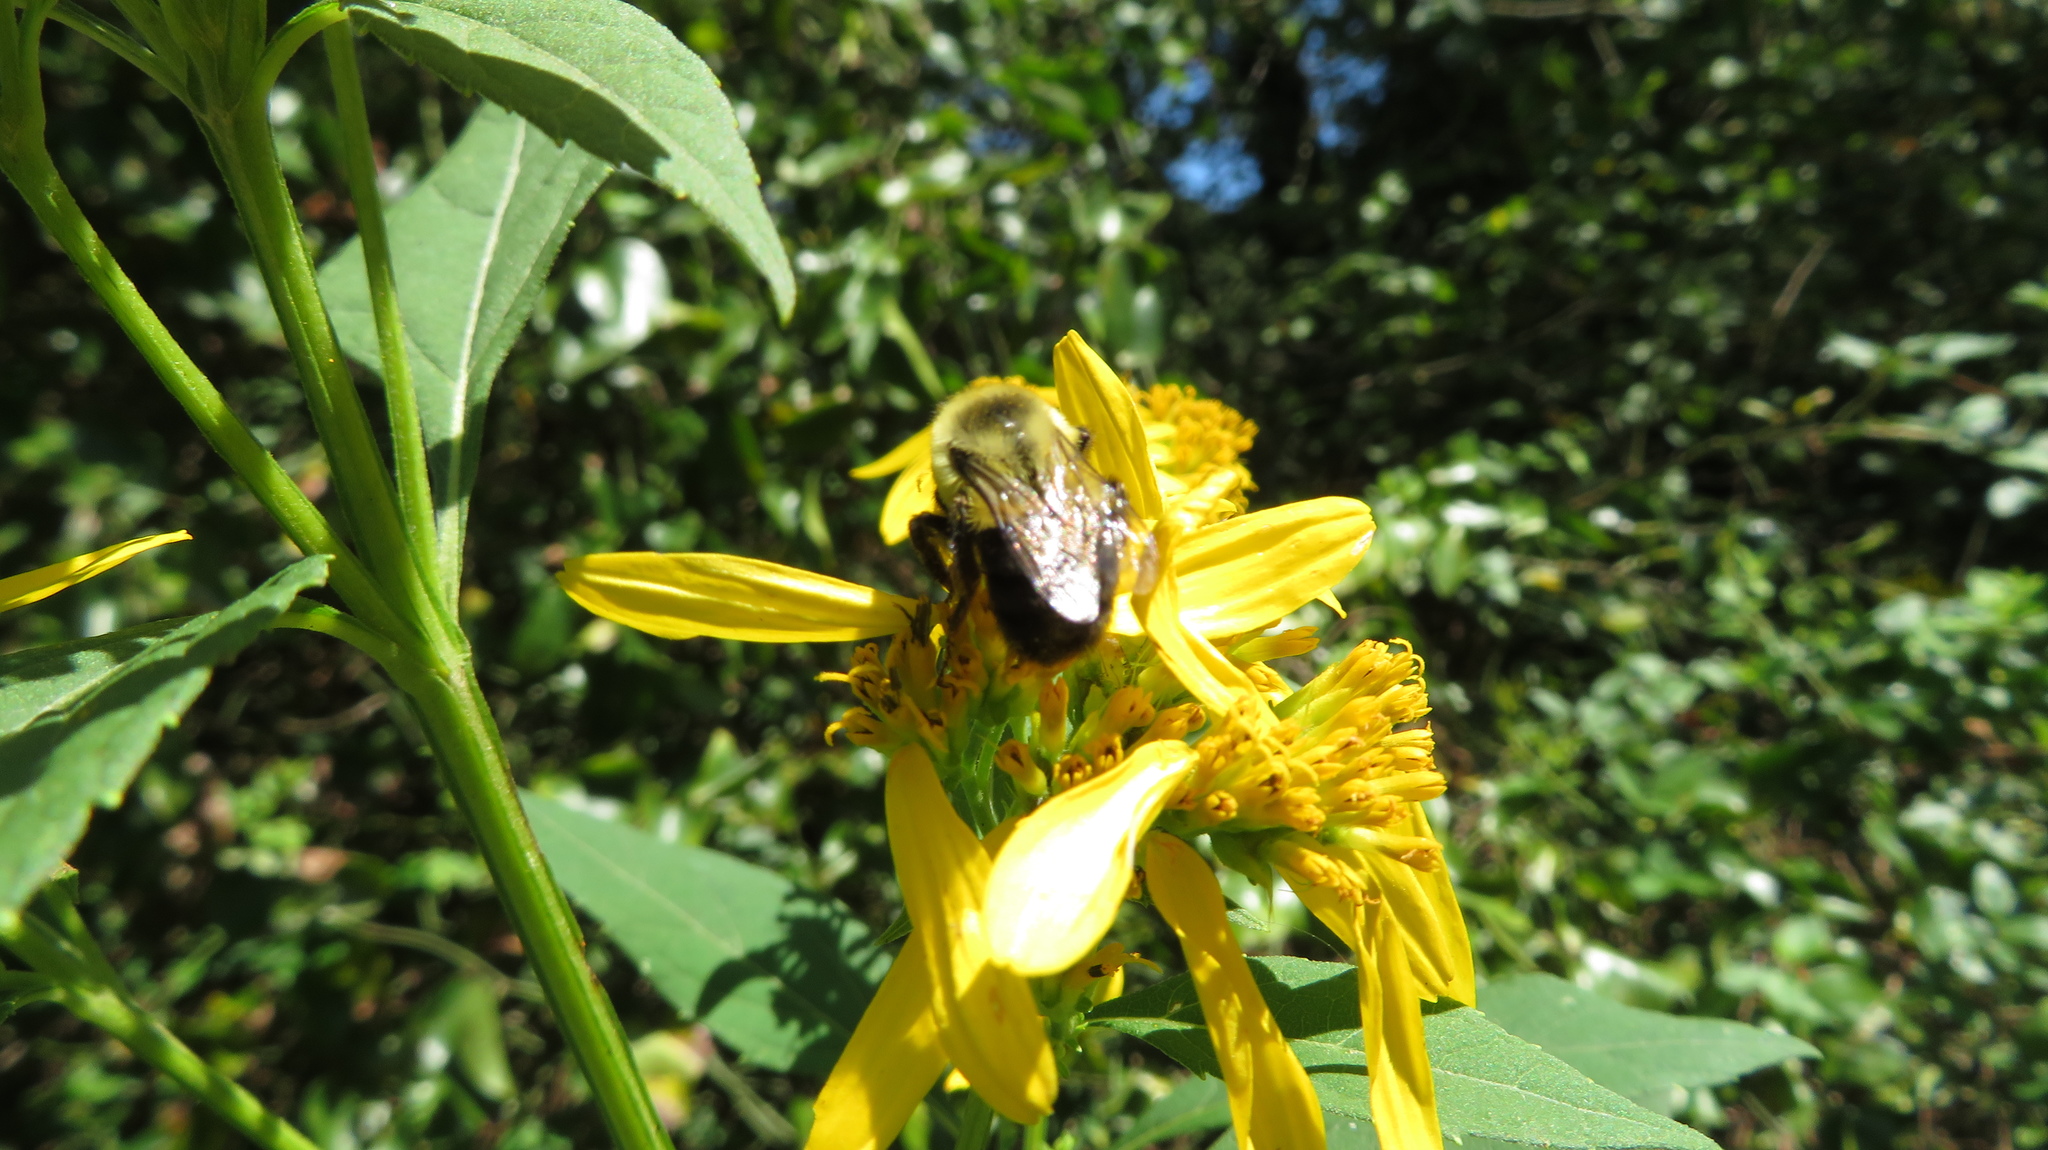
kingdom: Animalia
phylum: Arthropoda
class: Insecta
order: Hymenoptera
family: Apidae
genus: Bombus
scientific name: Bombus impatiens
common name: Common eastern bumble bee
